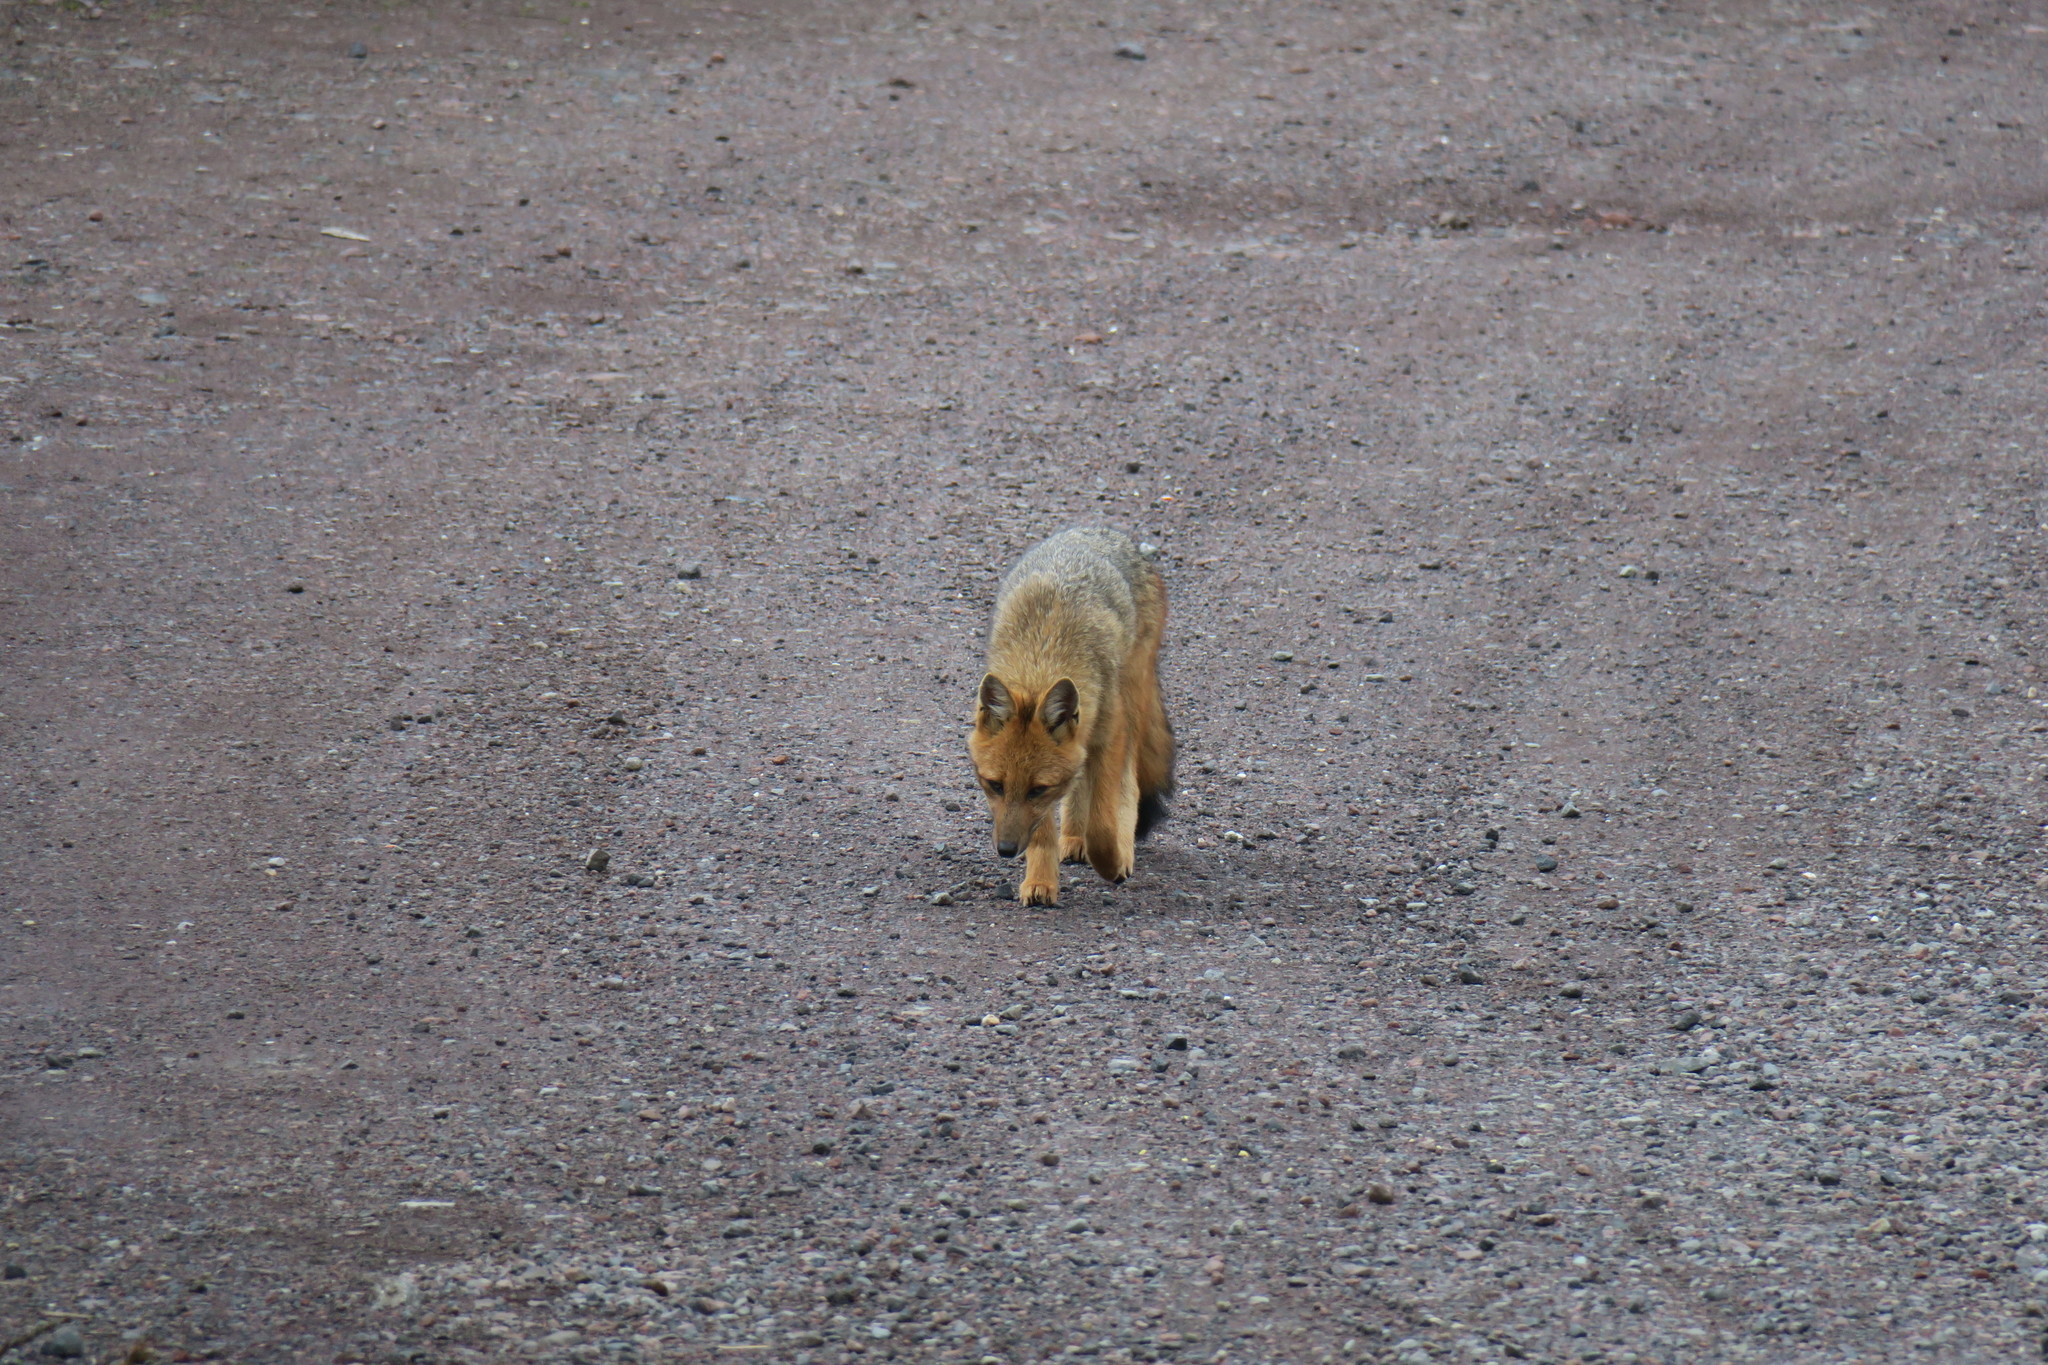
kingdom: Animalia
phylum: Chordata
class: Mammalia
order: Carnivora
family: Canidae
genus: Lycalopex
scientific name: Lycalopex culpaeus
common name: Culpeo
